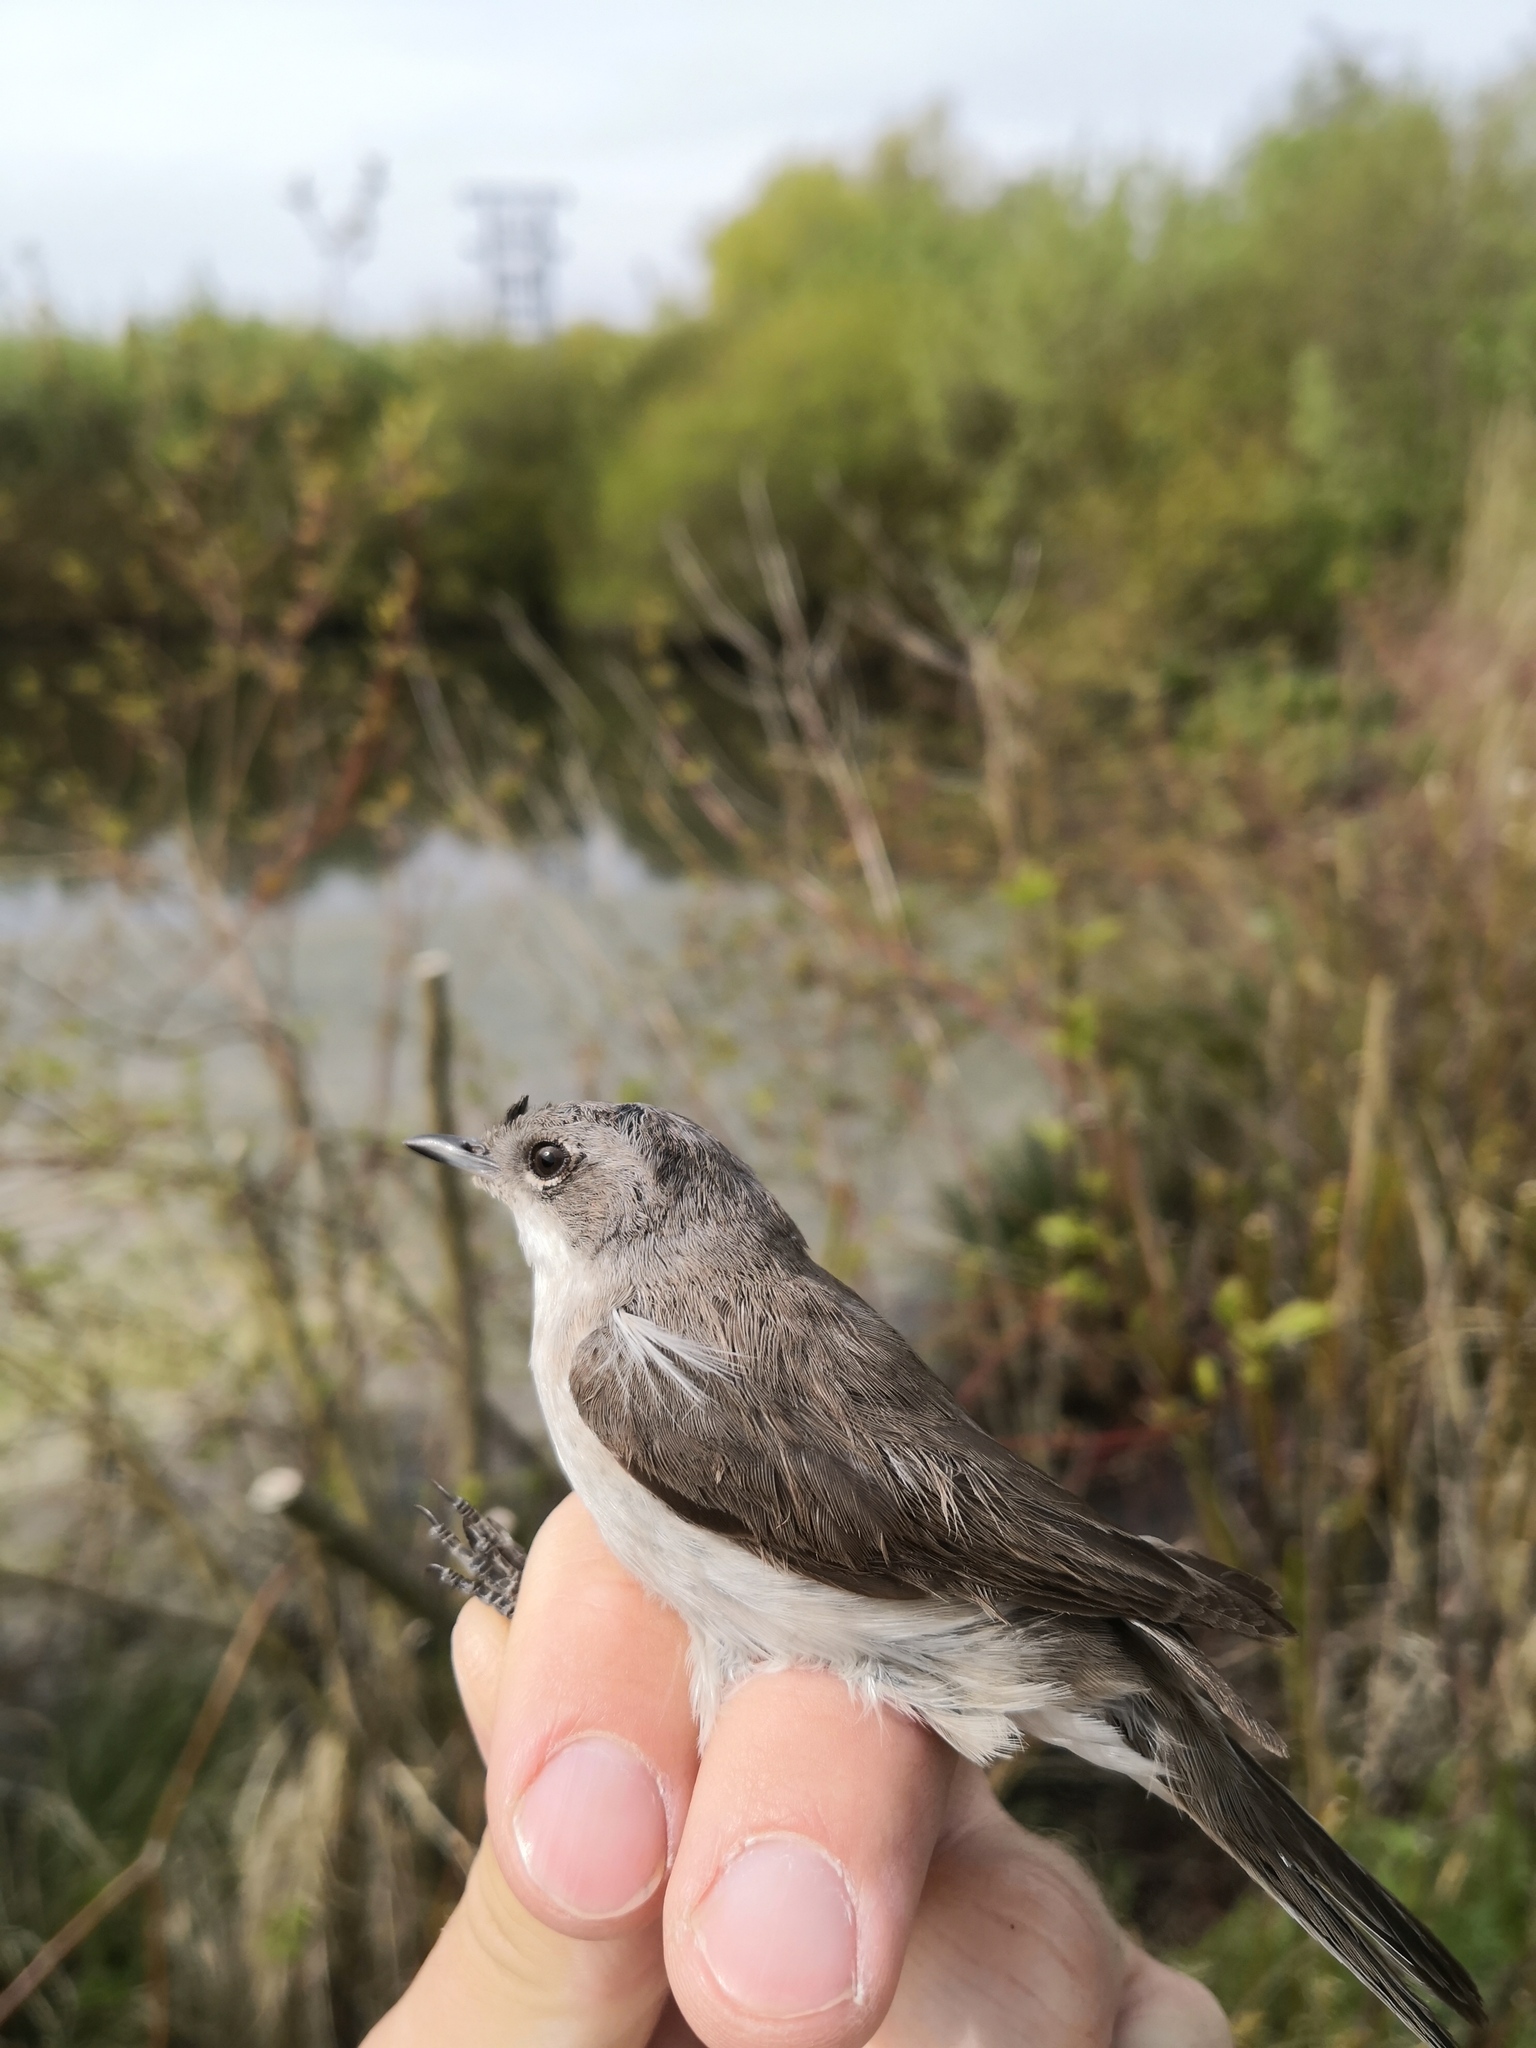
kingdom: Animalia
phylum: Chordata
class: Aves
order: Passeriformes
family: Sylviidae
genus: Sylvia
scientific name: Sylvia curruca
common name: Lesser whitethroat
